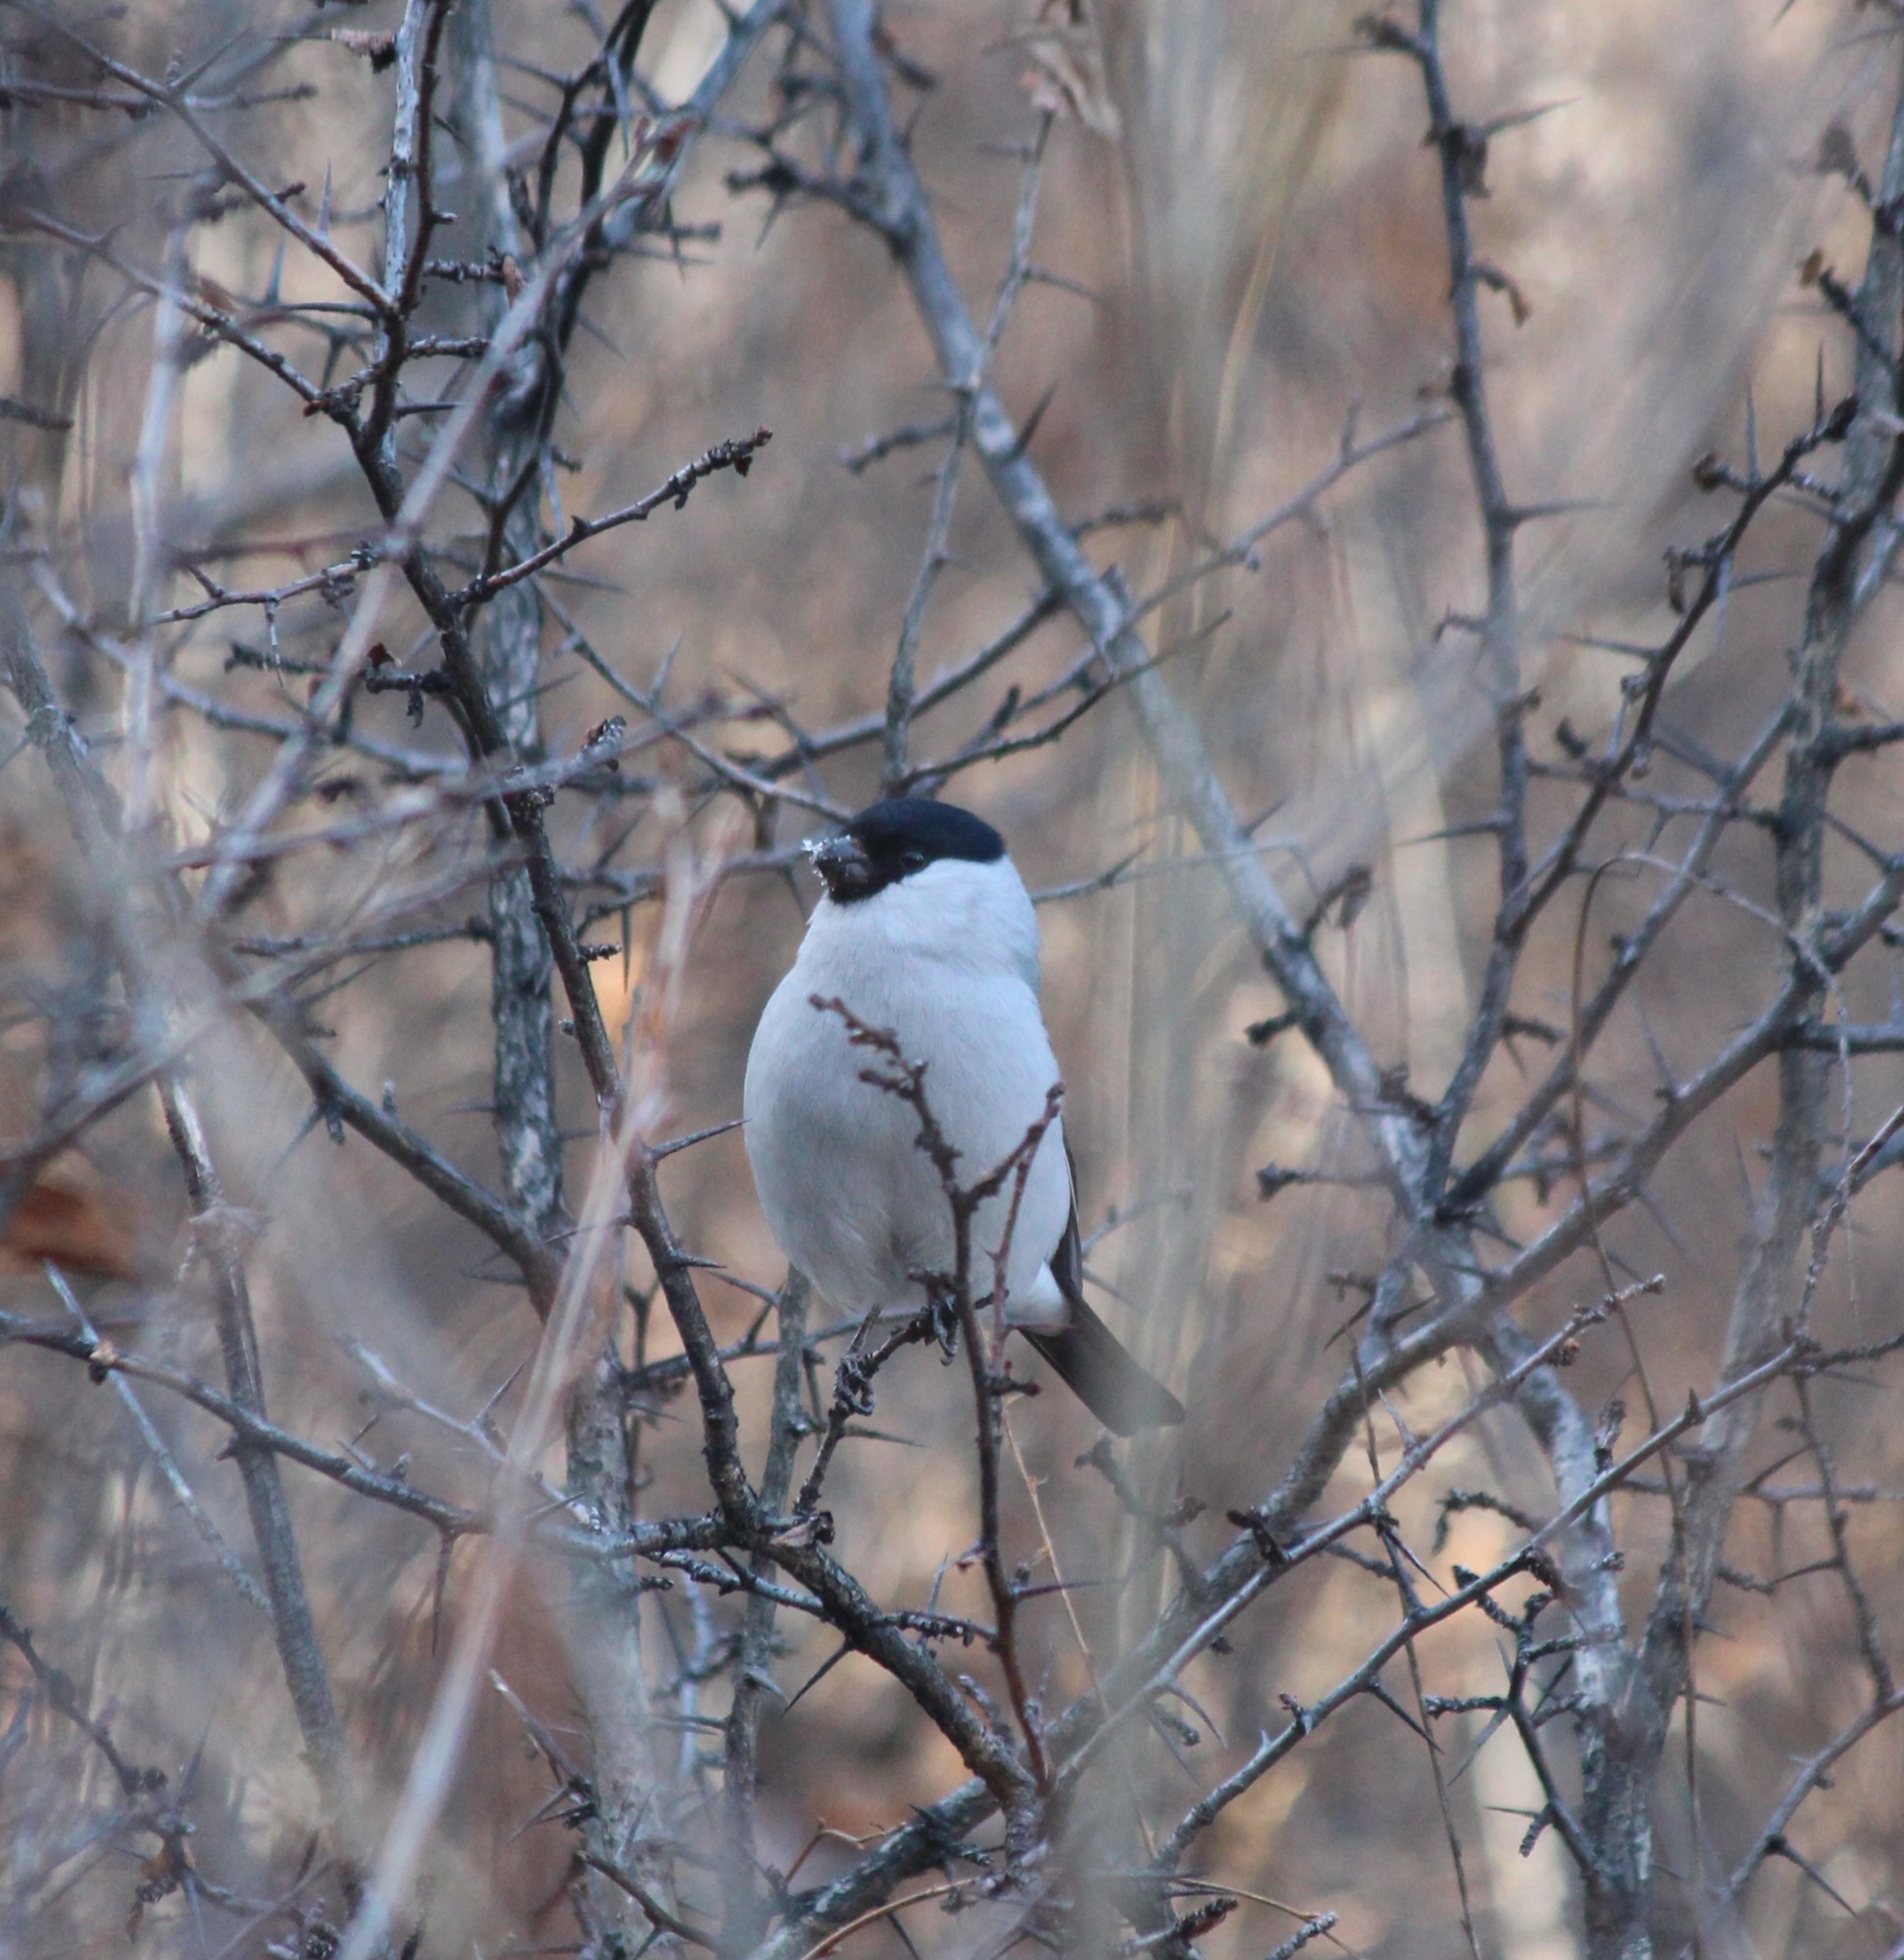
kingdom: Animalia
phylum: Chordata
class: Aves
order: Passeriformes
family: Fringillidae
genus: Pyrrhula
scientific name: Pyrrhula pyrrhula
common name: Eurasian bullfinch
